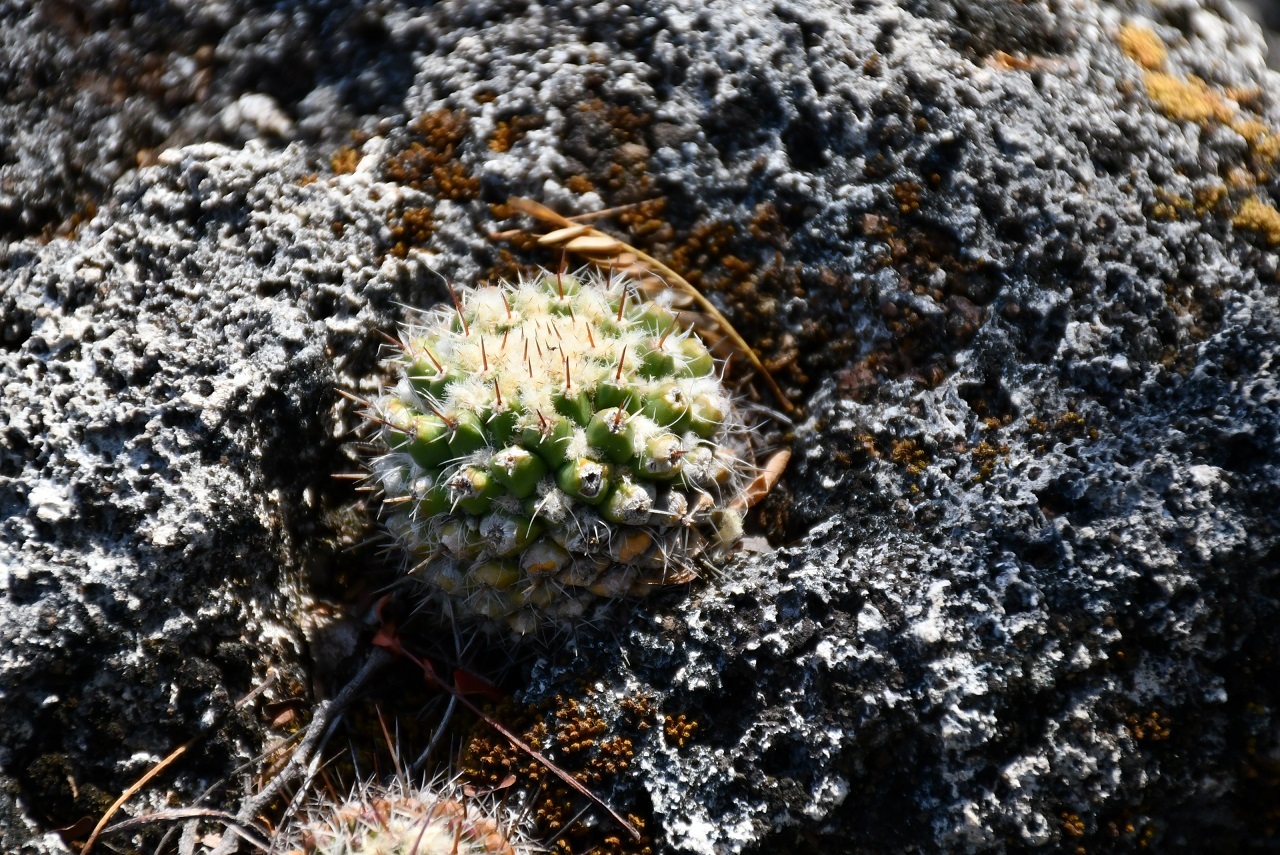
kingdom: Plantae
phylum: Tracheophyta
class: Magnoliopsida
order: Caryophyllales
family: Cactaceae
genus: Mammillaria
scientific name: Mammillaria voburnensis
